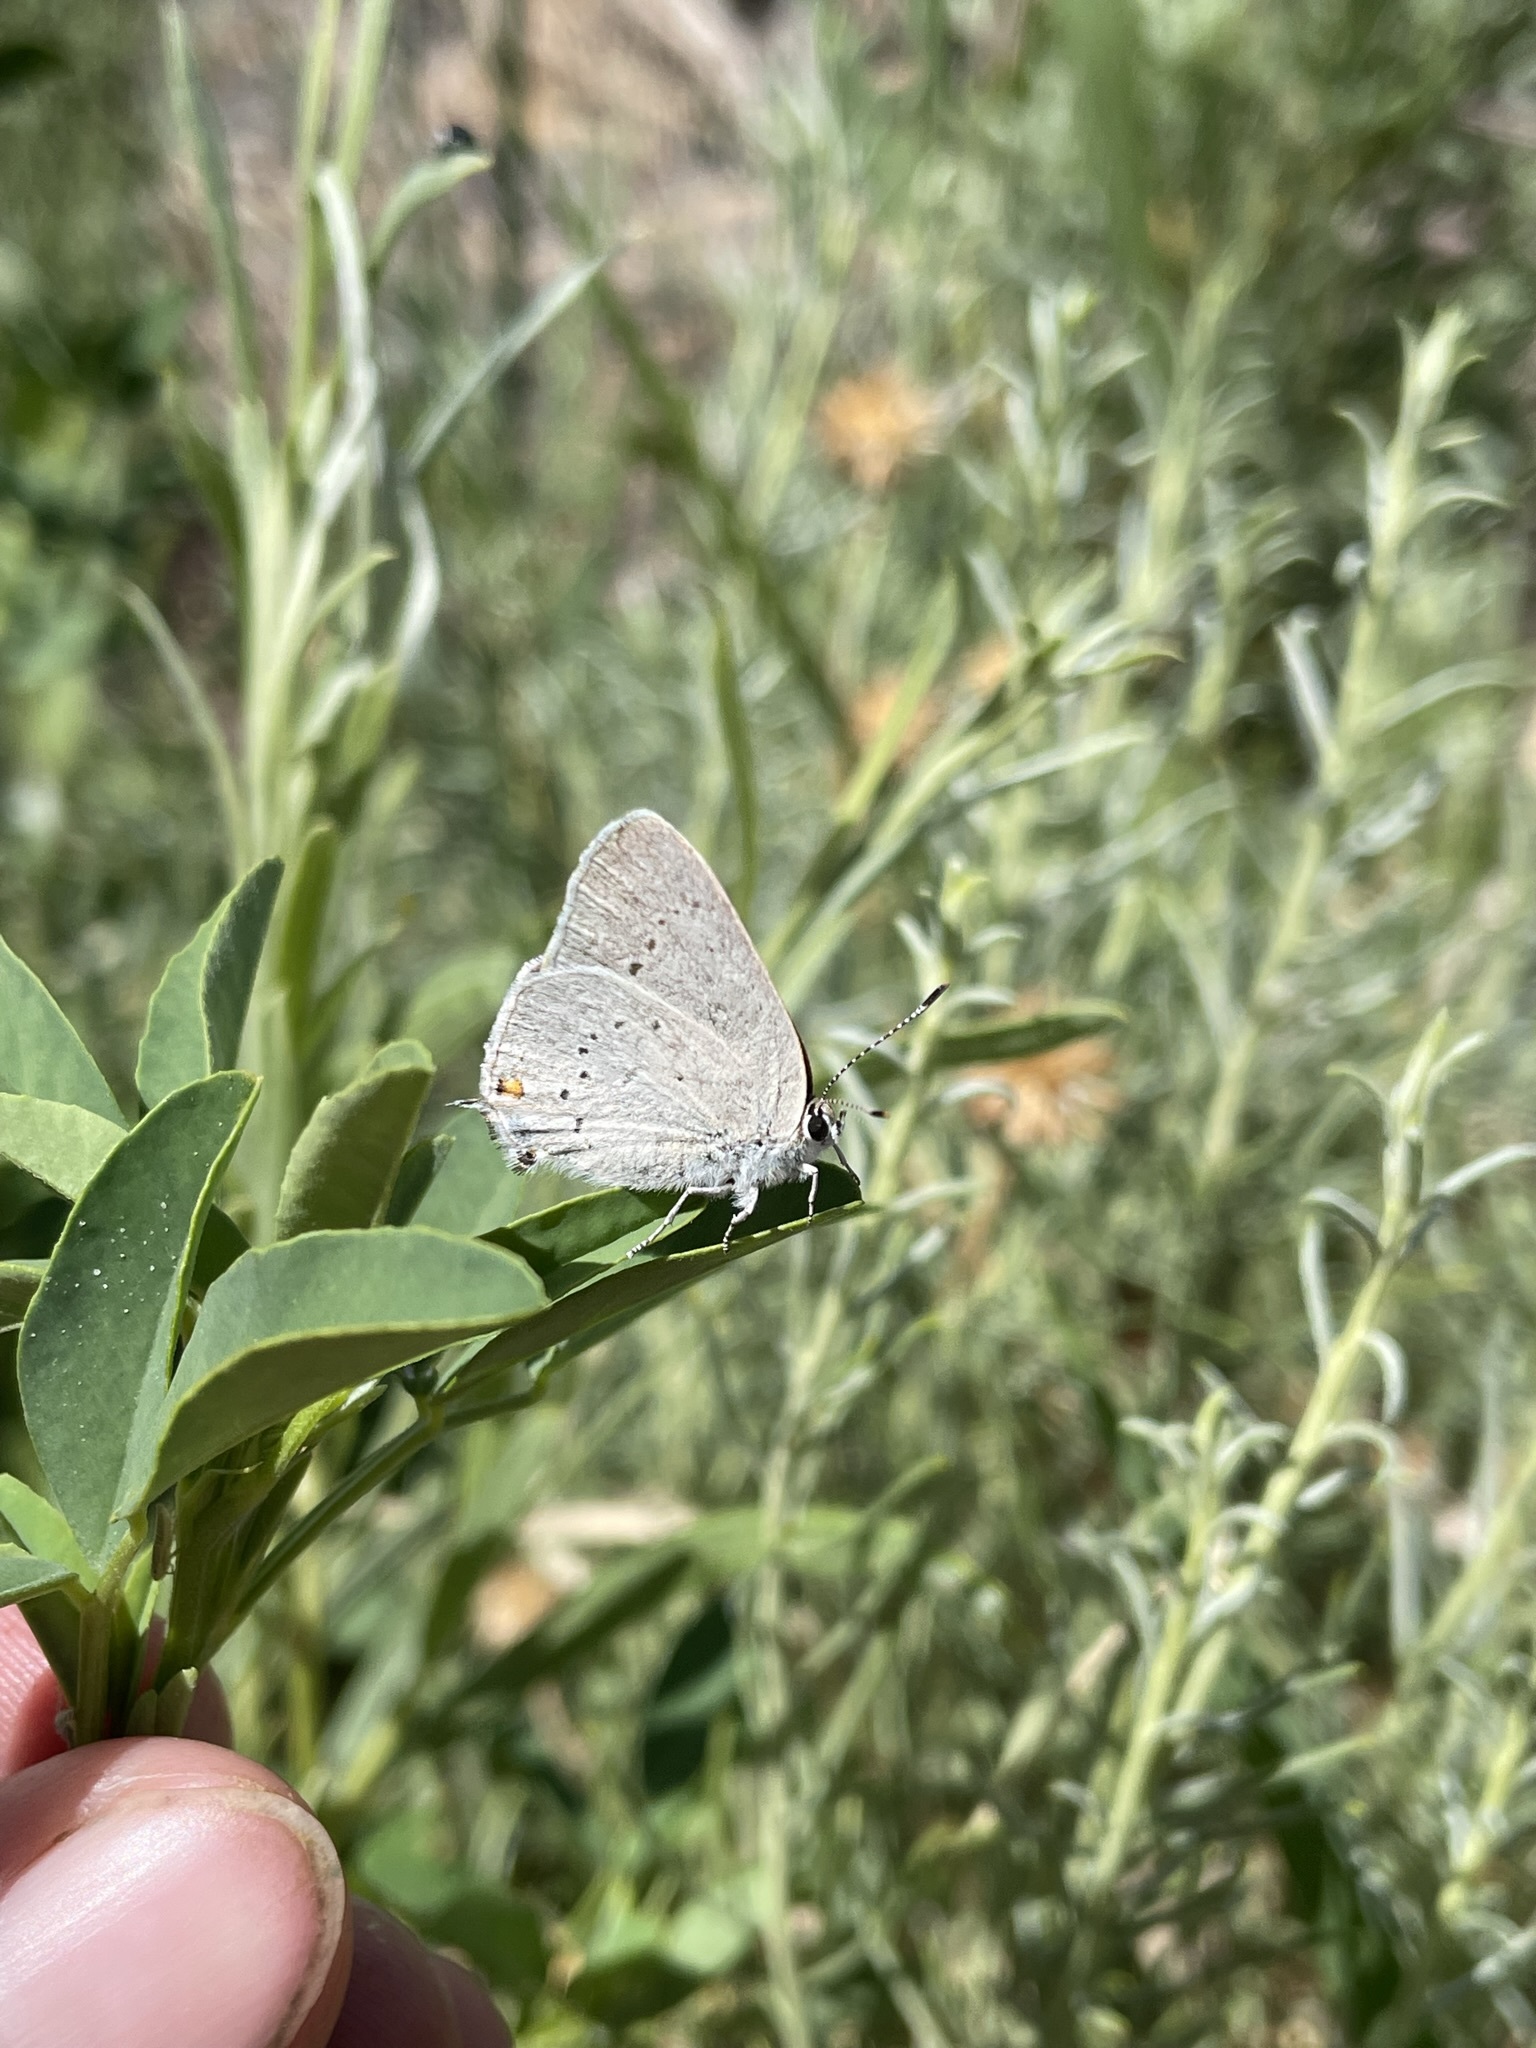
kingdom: Animalia
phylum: Arthropoda
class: Insecta
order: Lepidoptera
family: Lycaenidae
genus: Strymon
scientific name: Strymon sylvinus
